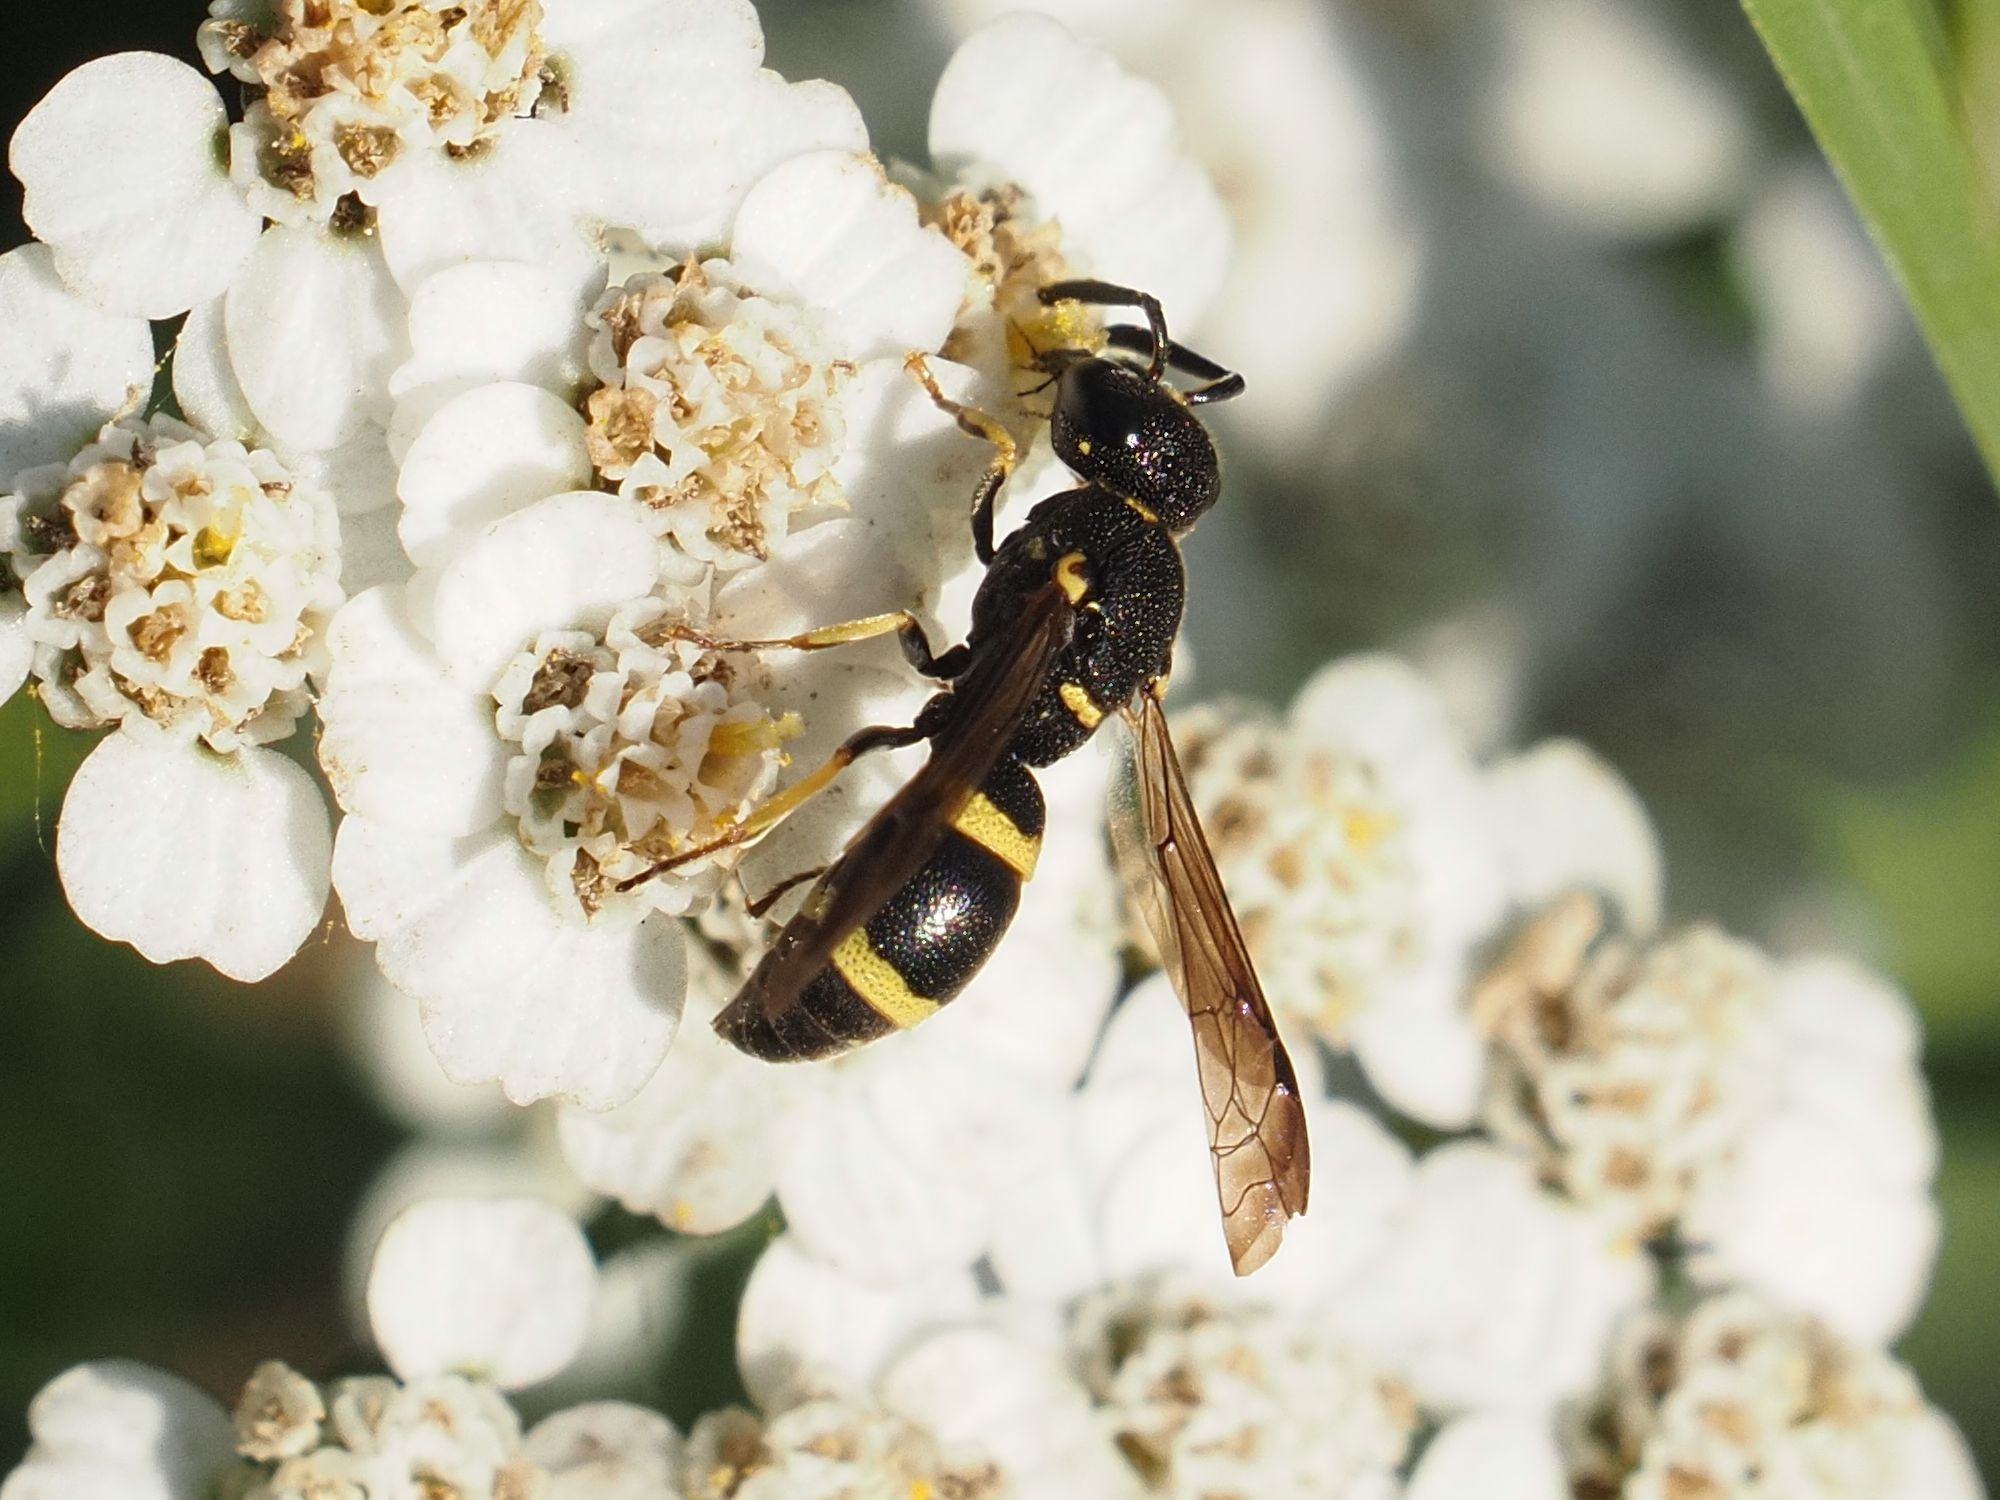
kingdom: Animalia
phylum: Arthropoda
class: Insecta
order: Hymenoptera
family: Eumenidae
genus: Rhynchalastor
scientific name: Rhynchalastor chevrieranus
